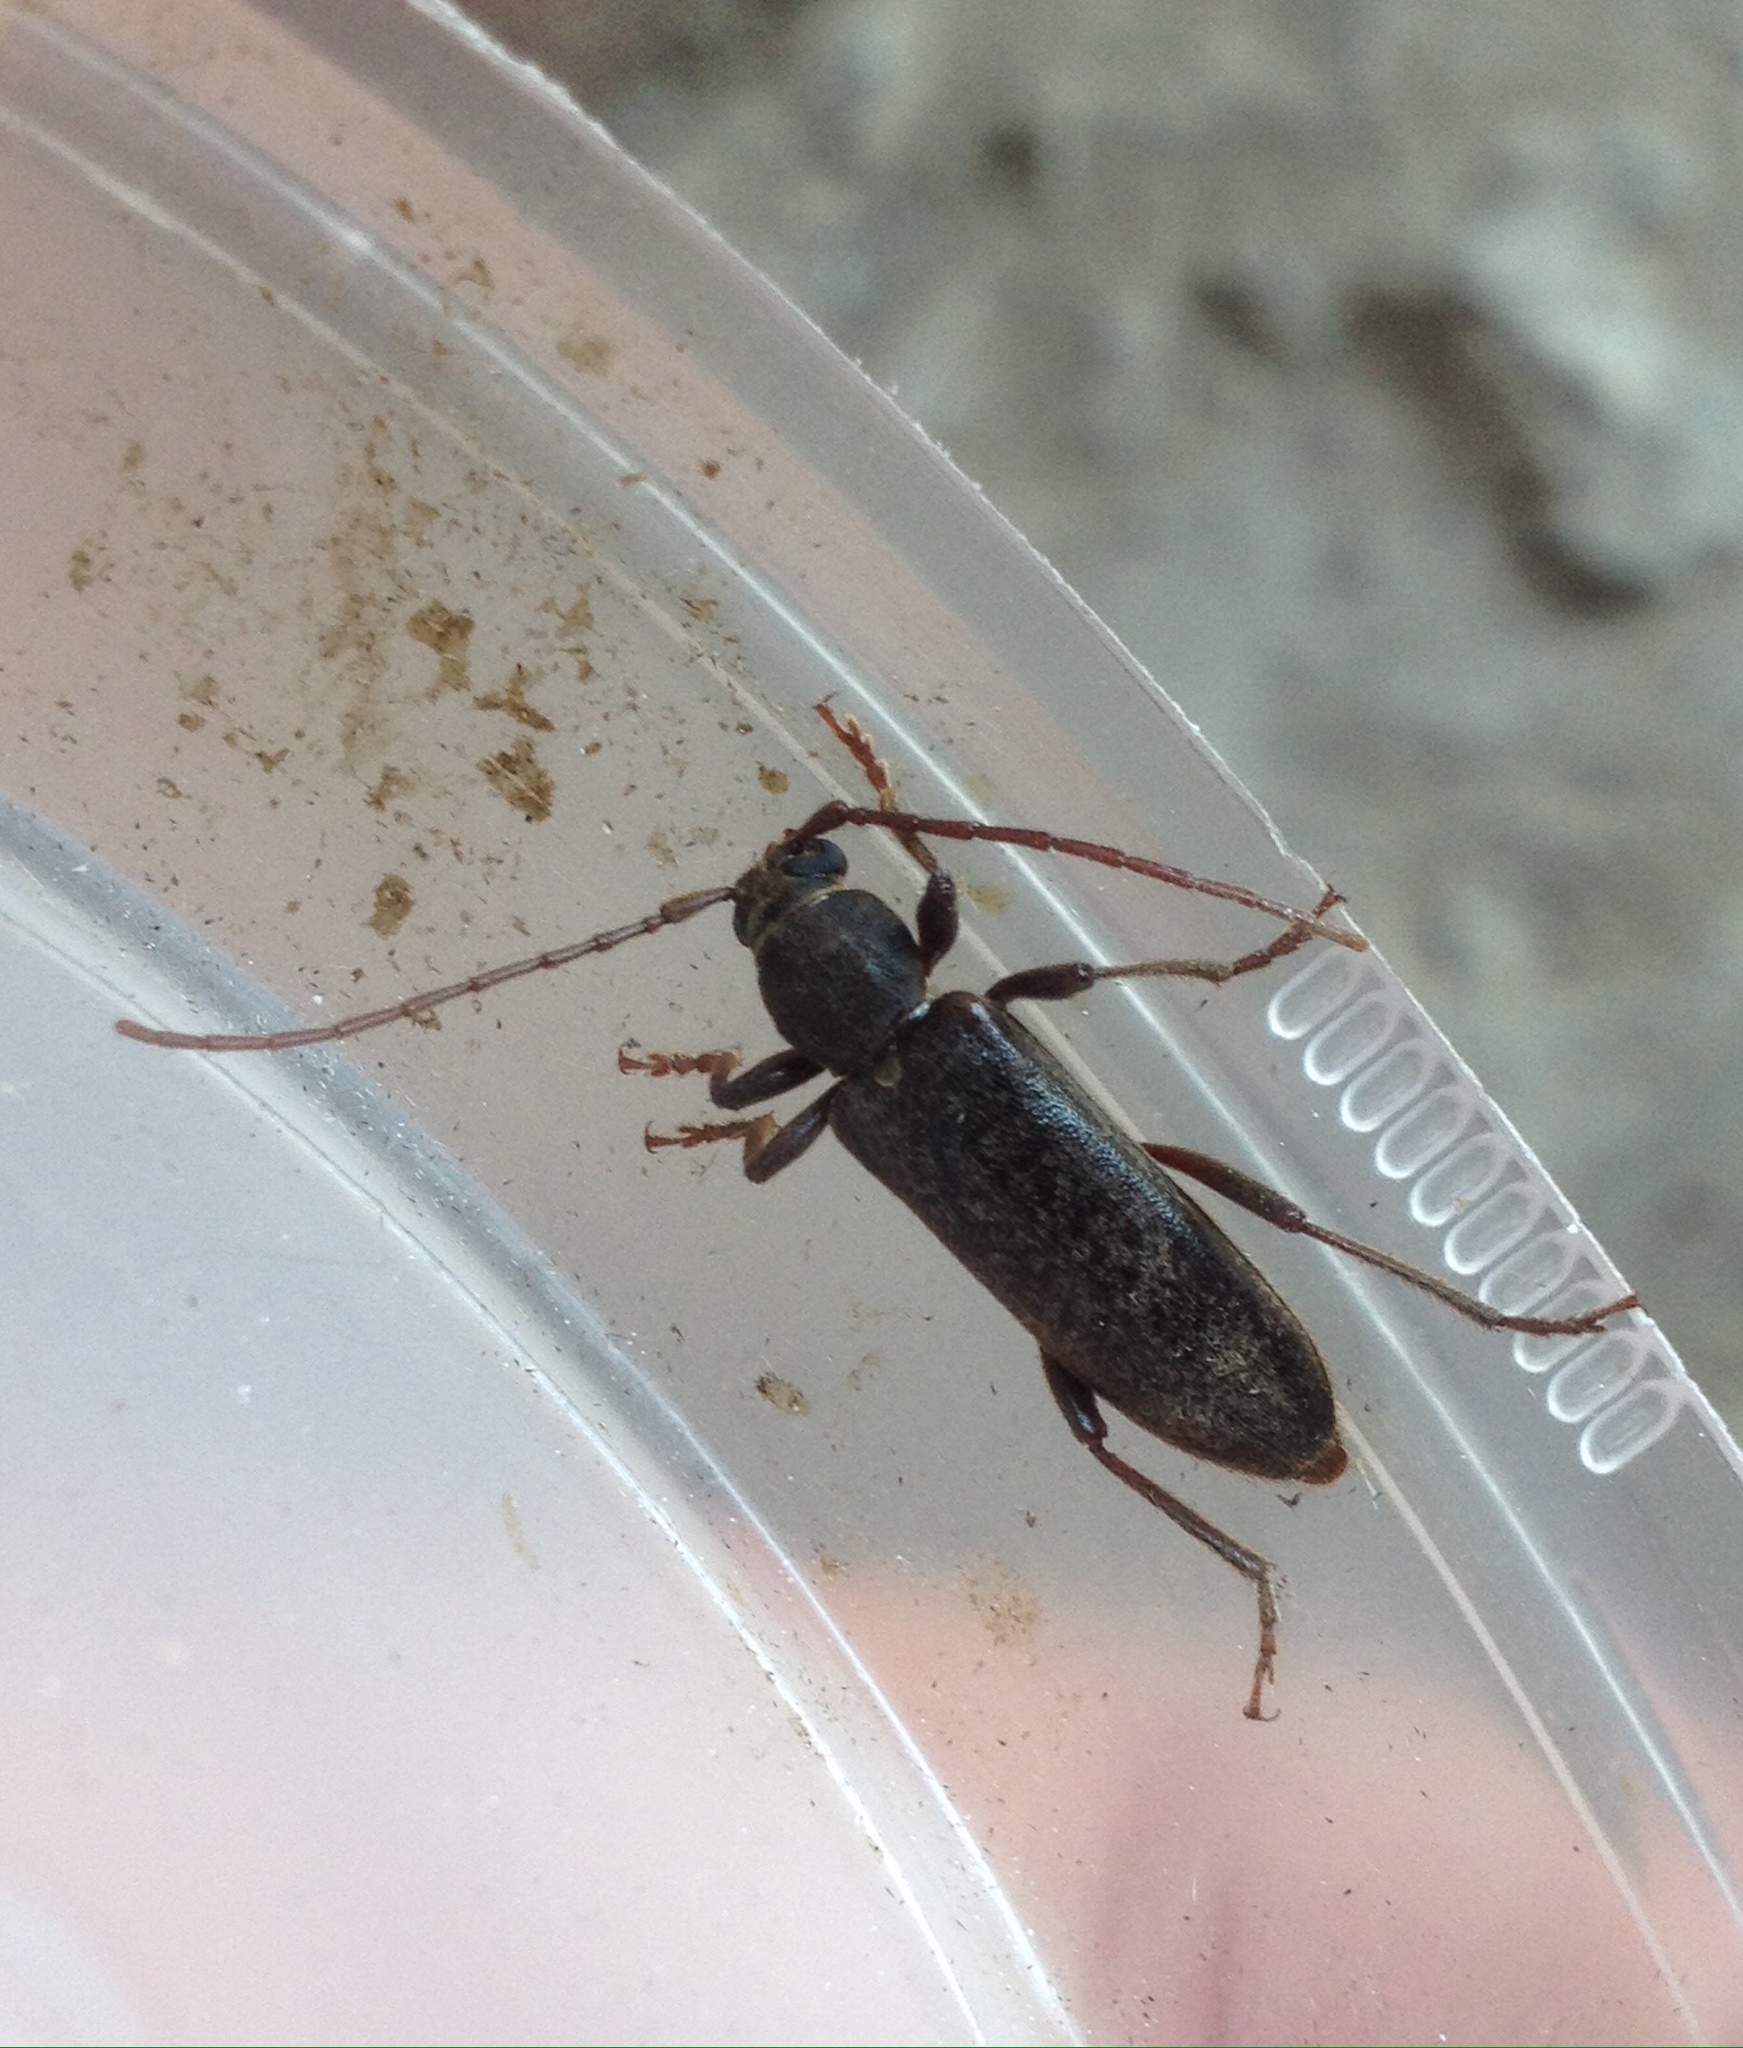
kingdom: Animalia
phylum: Arthropoda
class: Insecta
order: Coleoptera
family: Cerambycidae
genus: Trichoferus
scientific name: Trichoferus campestris
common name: Velvet long horned beetle
